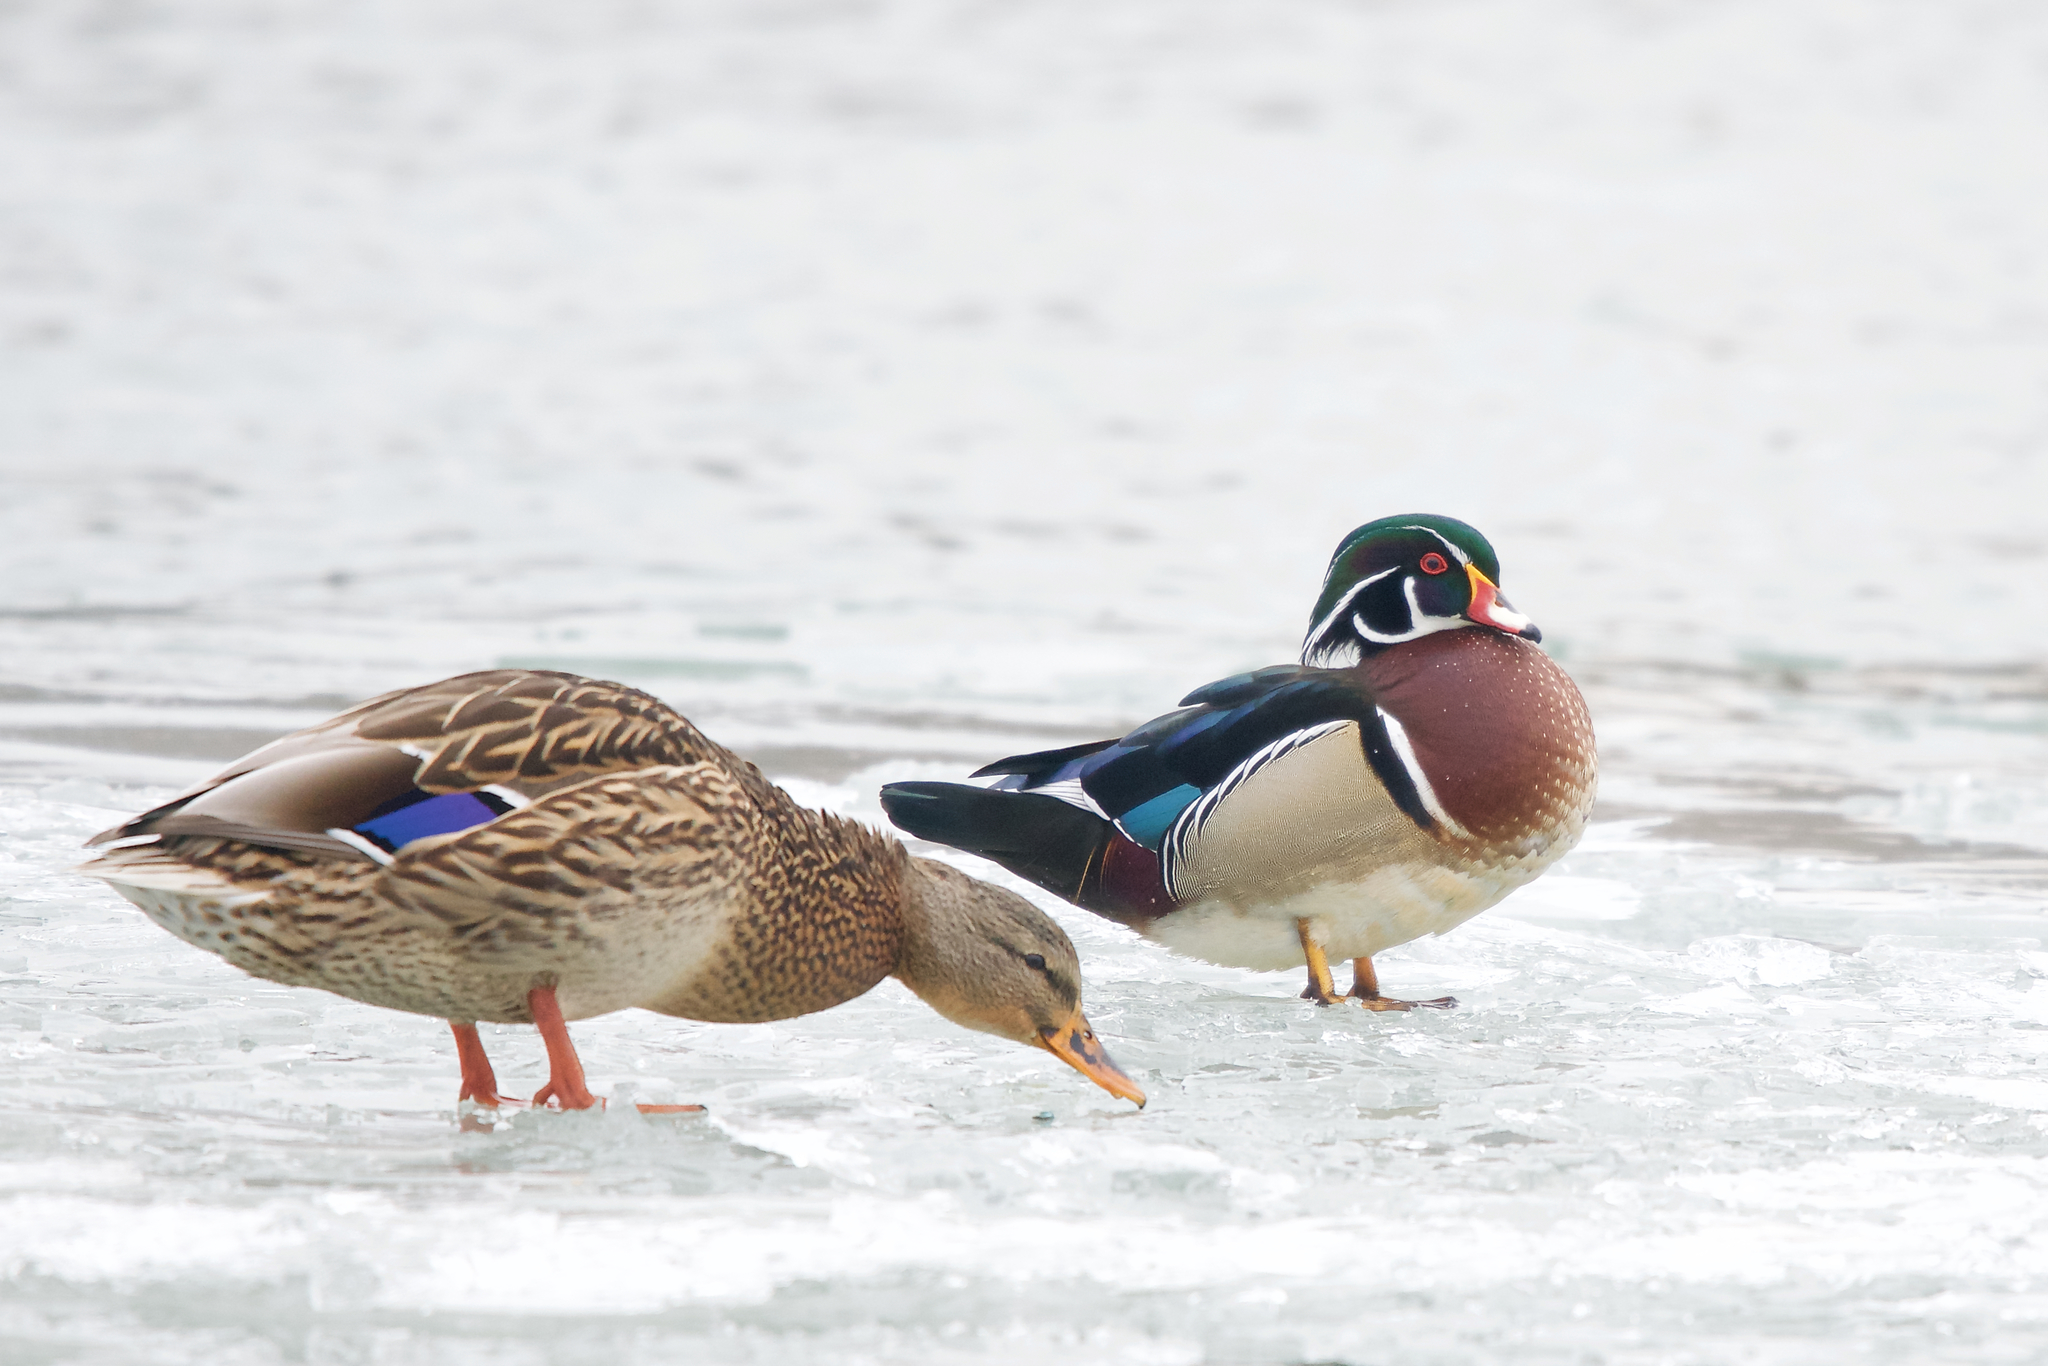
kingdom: Animalia
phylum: Chordata
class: Aves
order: Anseriformes
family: Anatidae
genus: Aix
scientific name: Aix sponsa
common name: Wood duck
